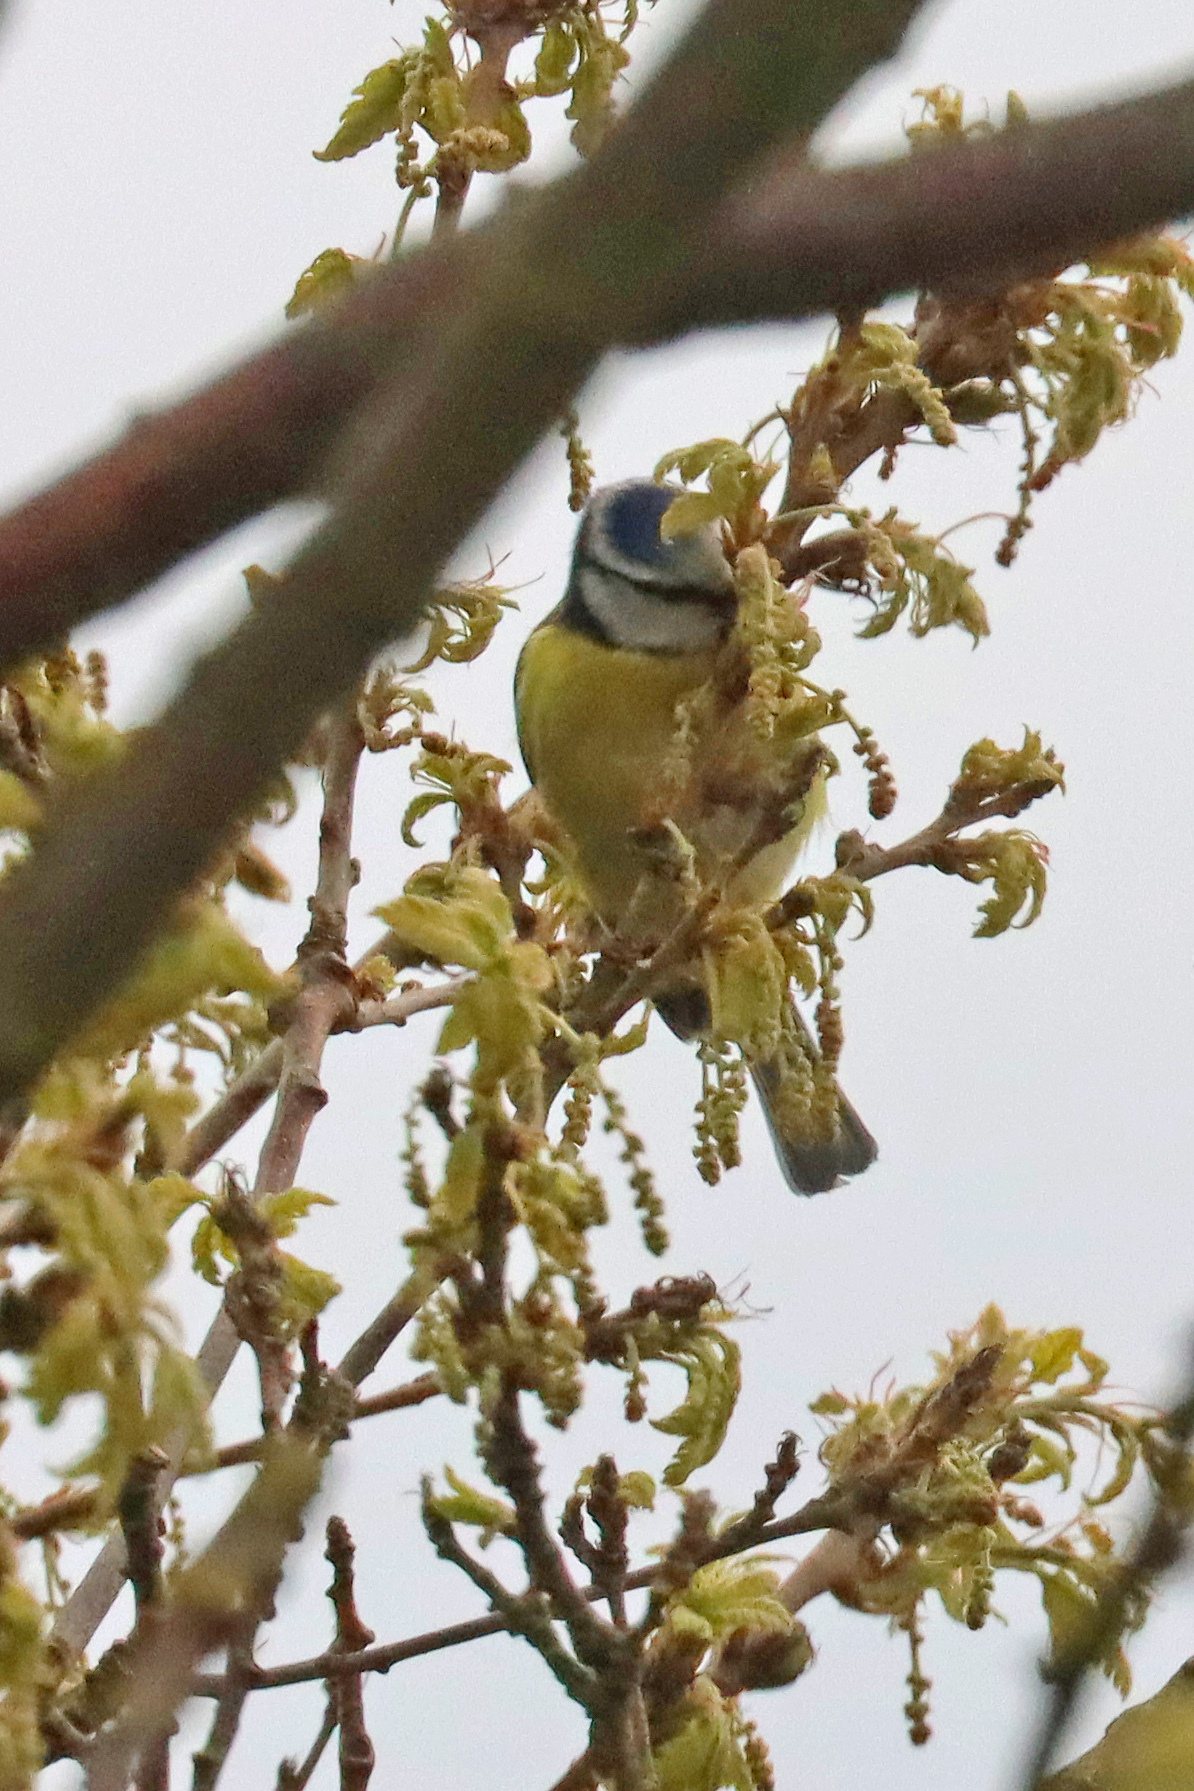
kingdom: Animalia
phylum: Chordata
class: Aves
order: Passeriformes
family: Paridae
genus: Cyanistes
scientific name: Cyanistes caeruleus
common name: Eurasian blue tit
